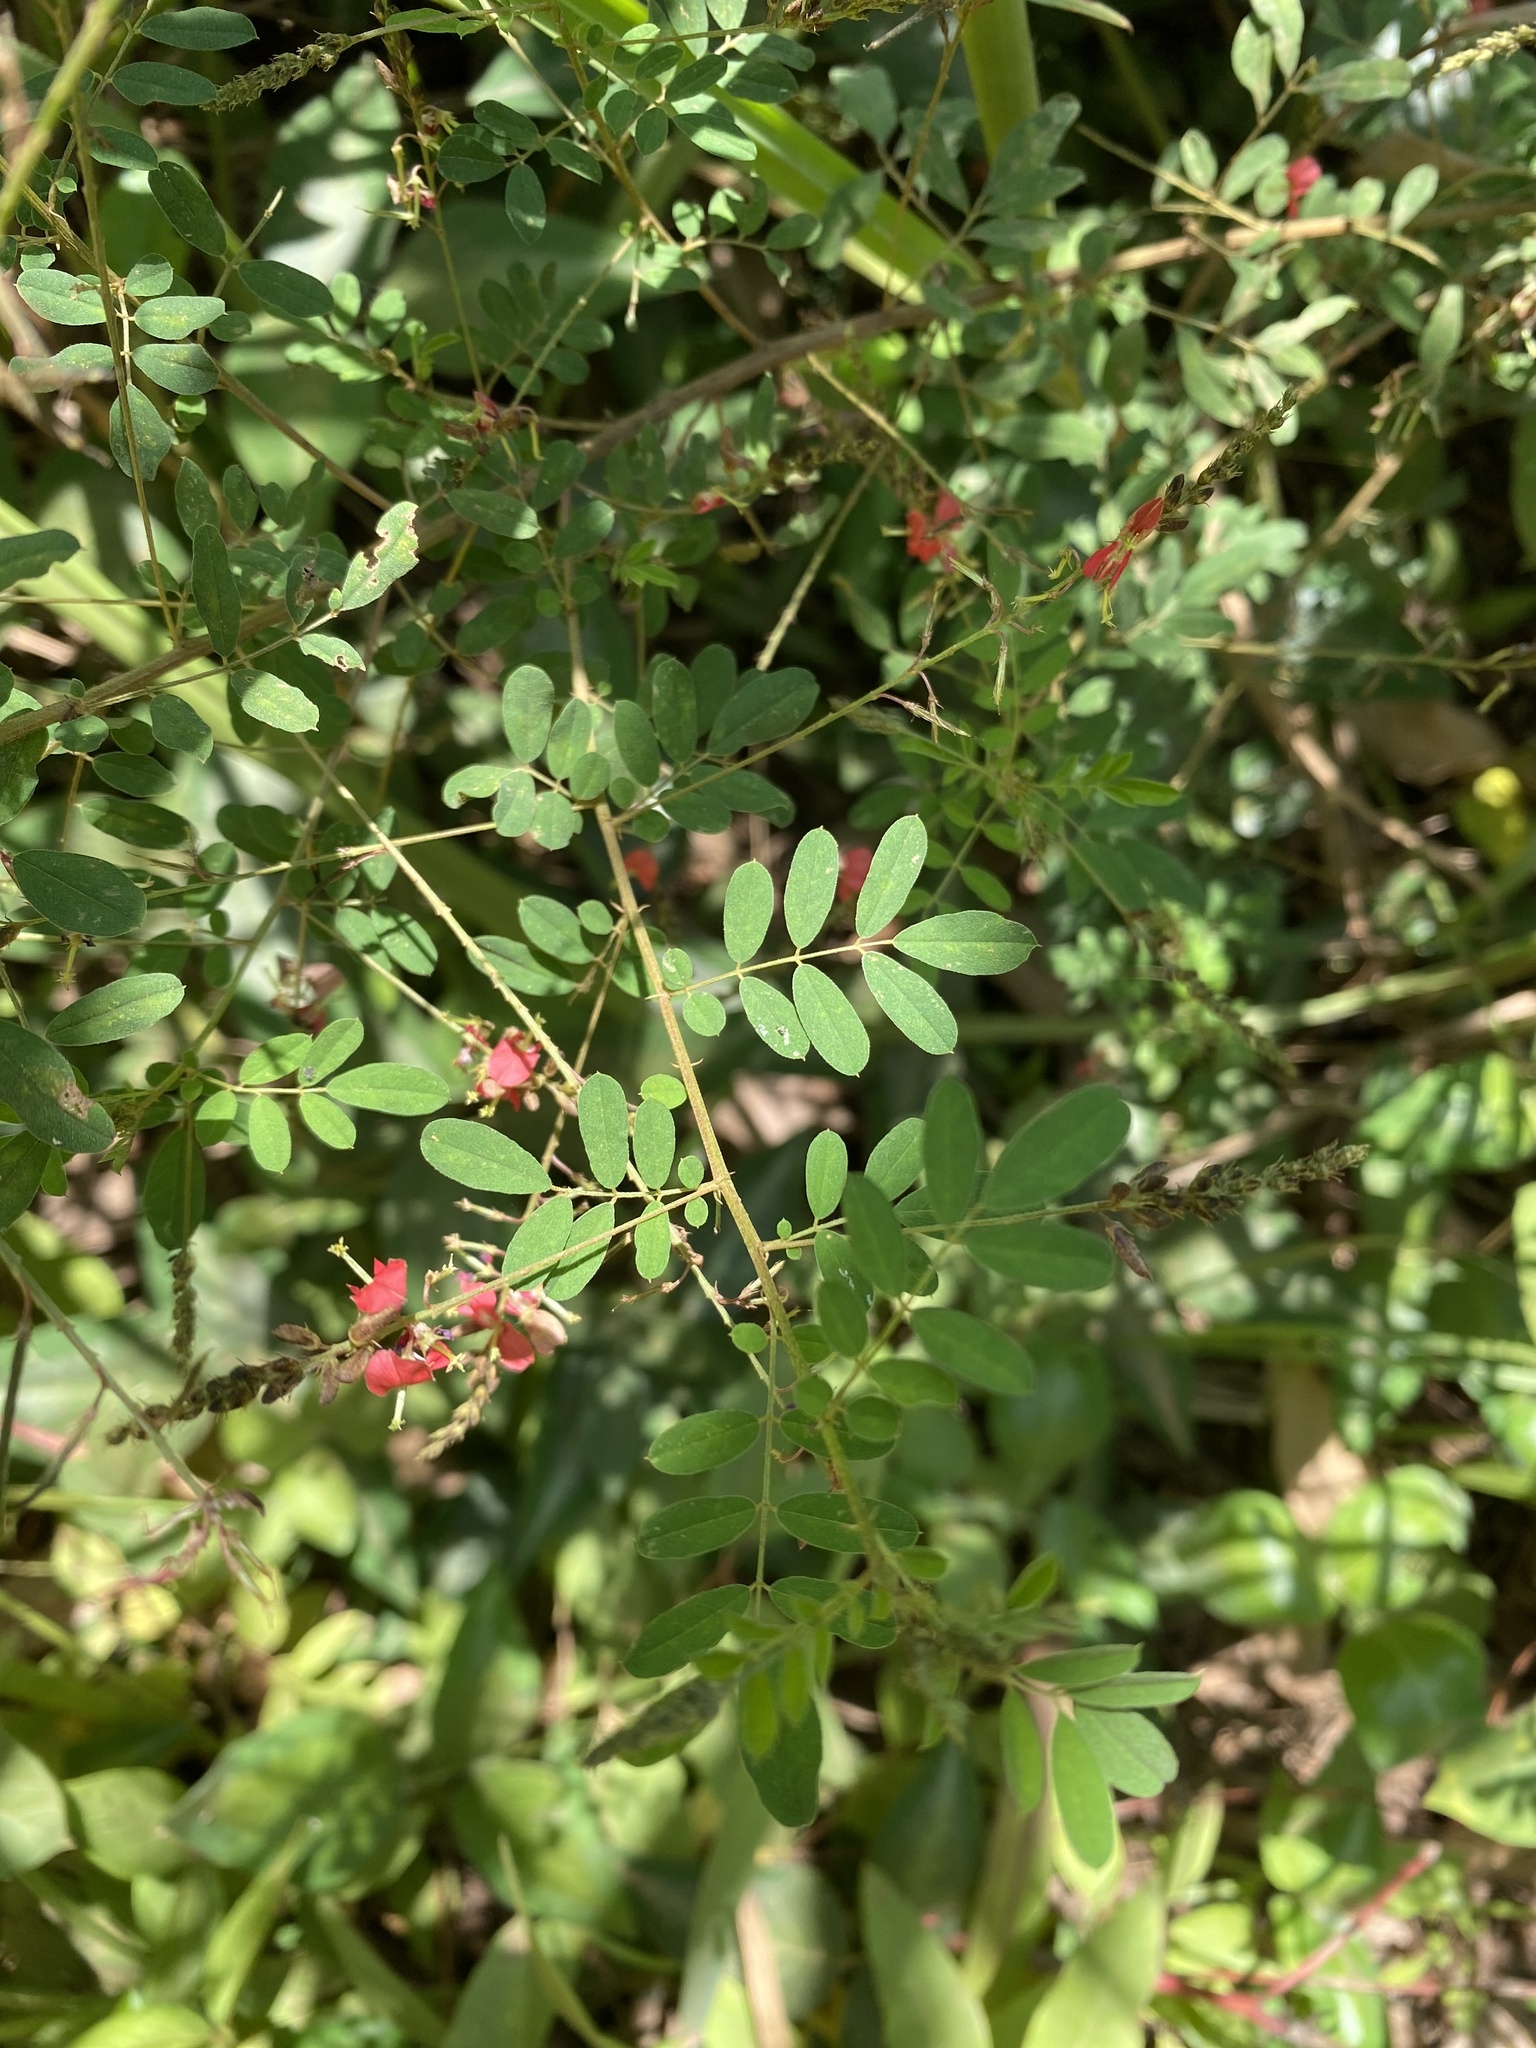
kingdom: Plantae
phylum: Tracheophyta
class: Magnoliopsida
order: Fabales
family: Fabaceae
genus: Indigofera
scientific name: Indigofera galpinii
